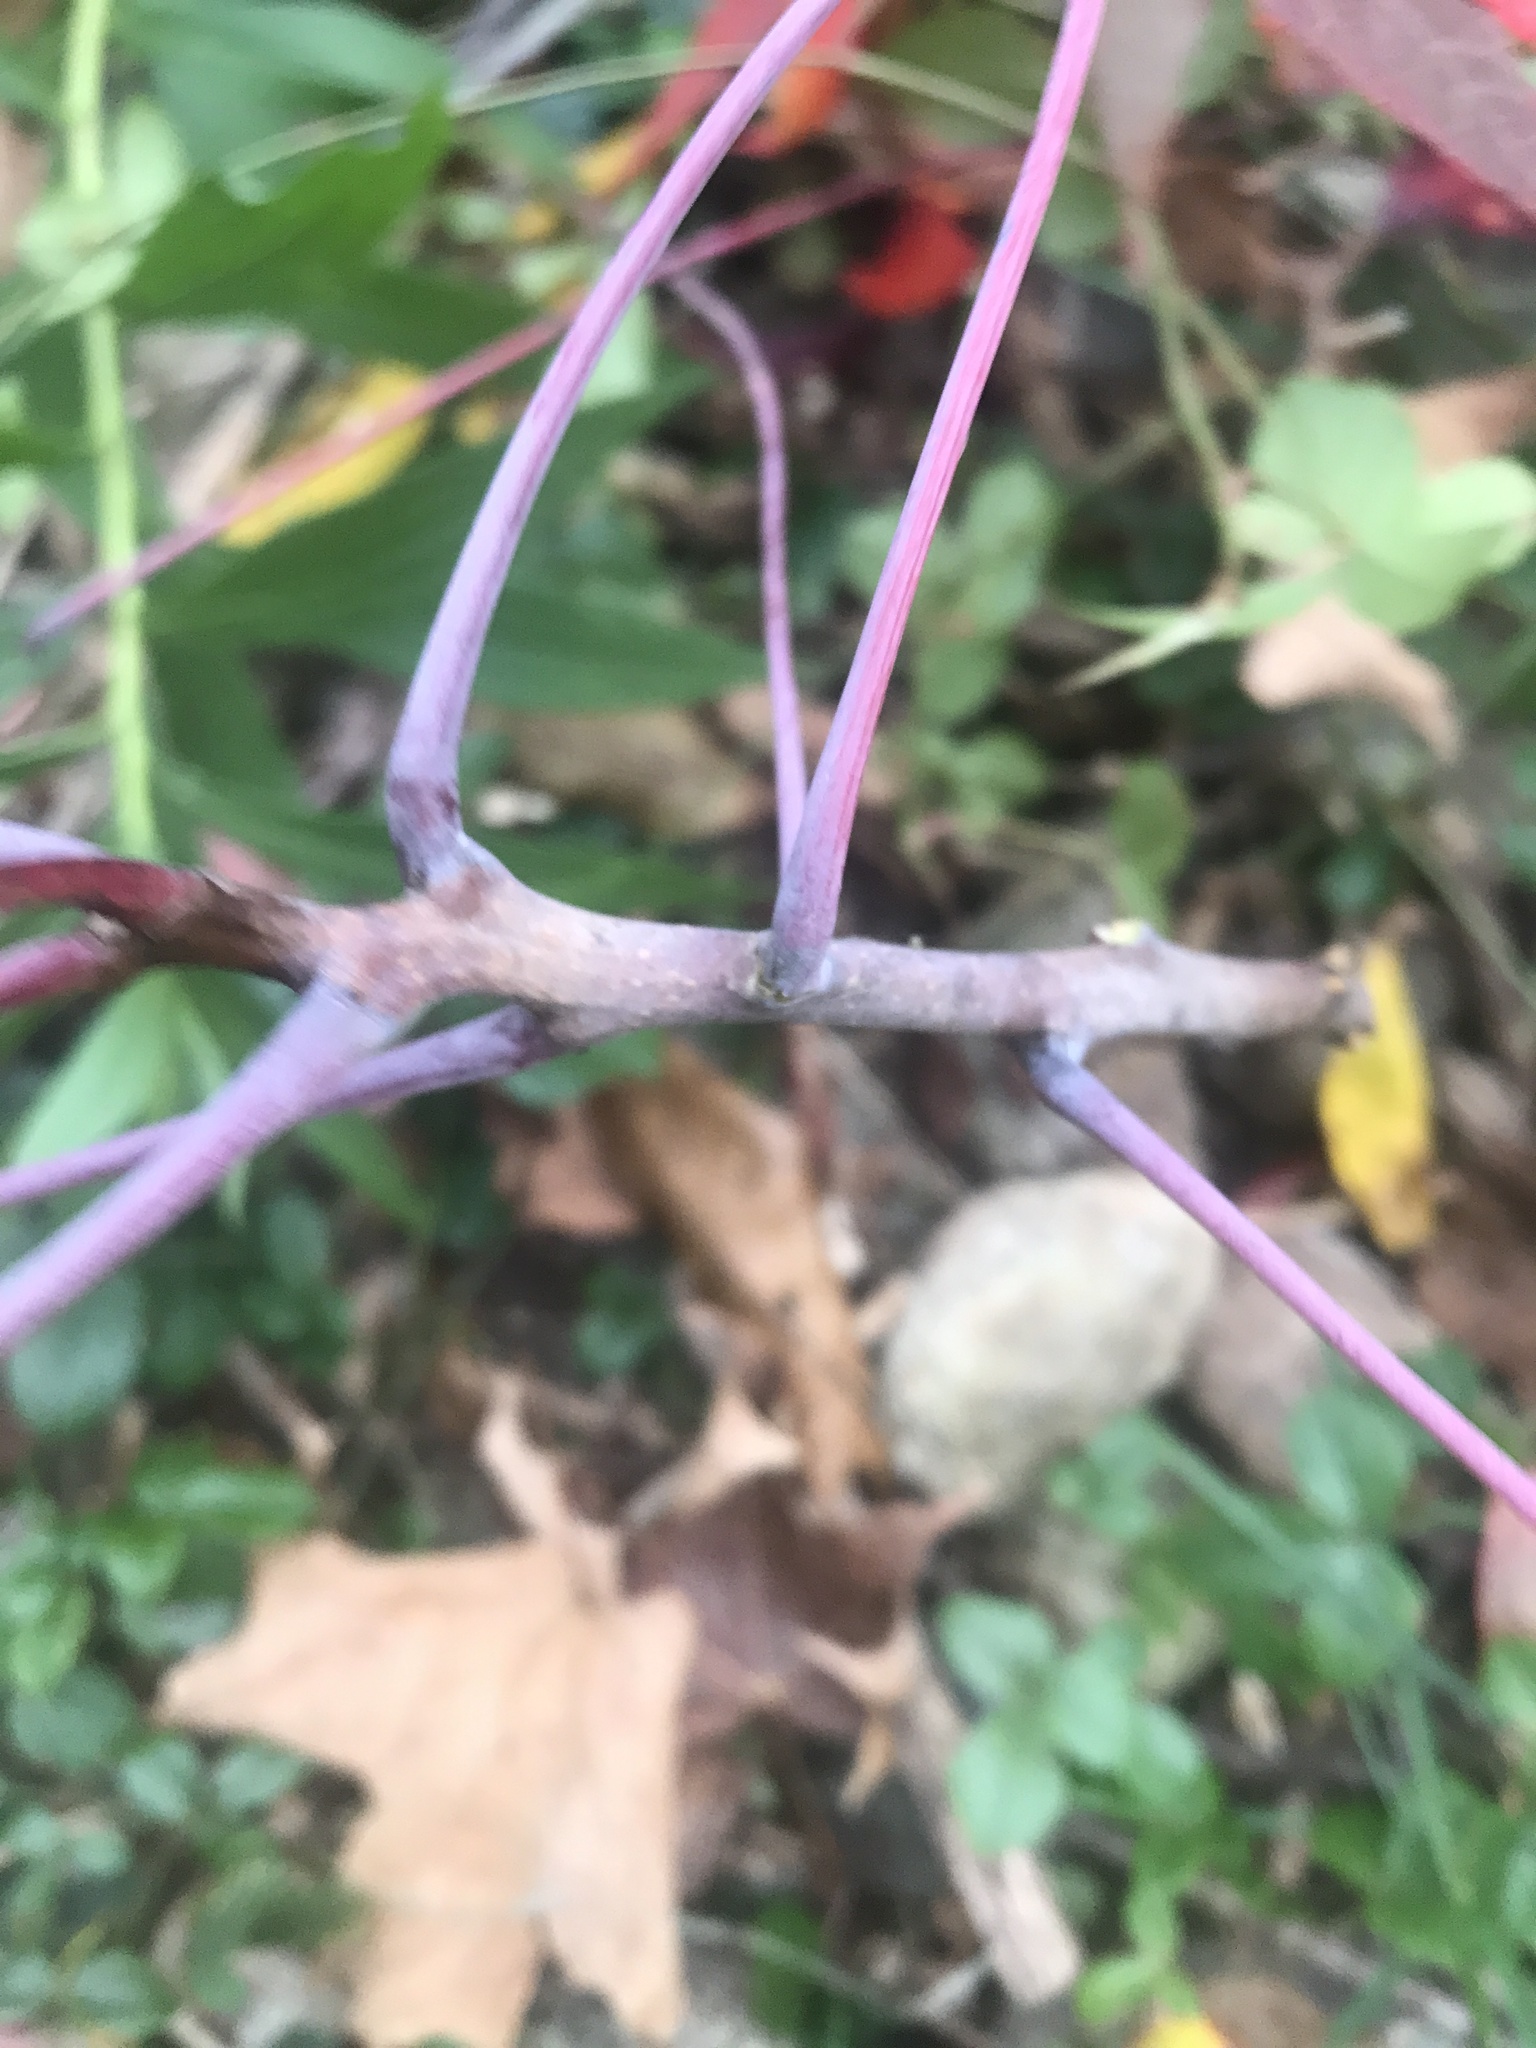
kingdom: Plantae
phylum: Tracheophyta
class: Magnoliopsida
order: Sapindales
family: Anacardiaceae
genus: Rhus
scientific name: Rhus glabra
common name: Scarlet sumac
